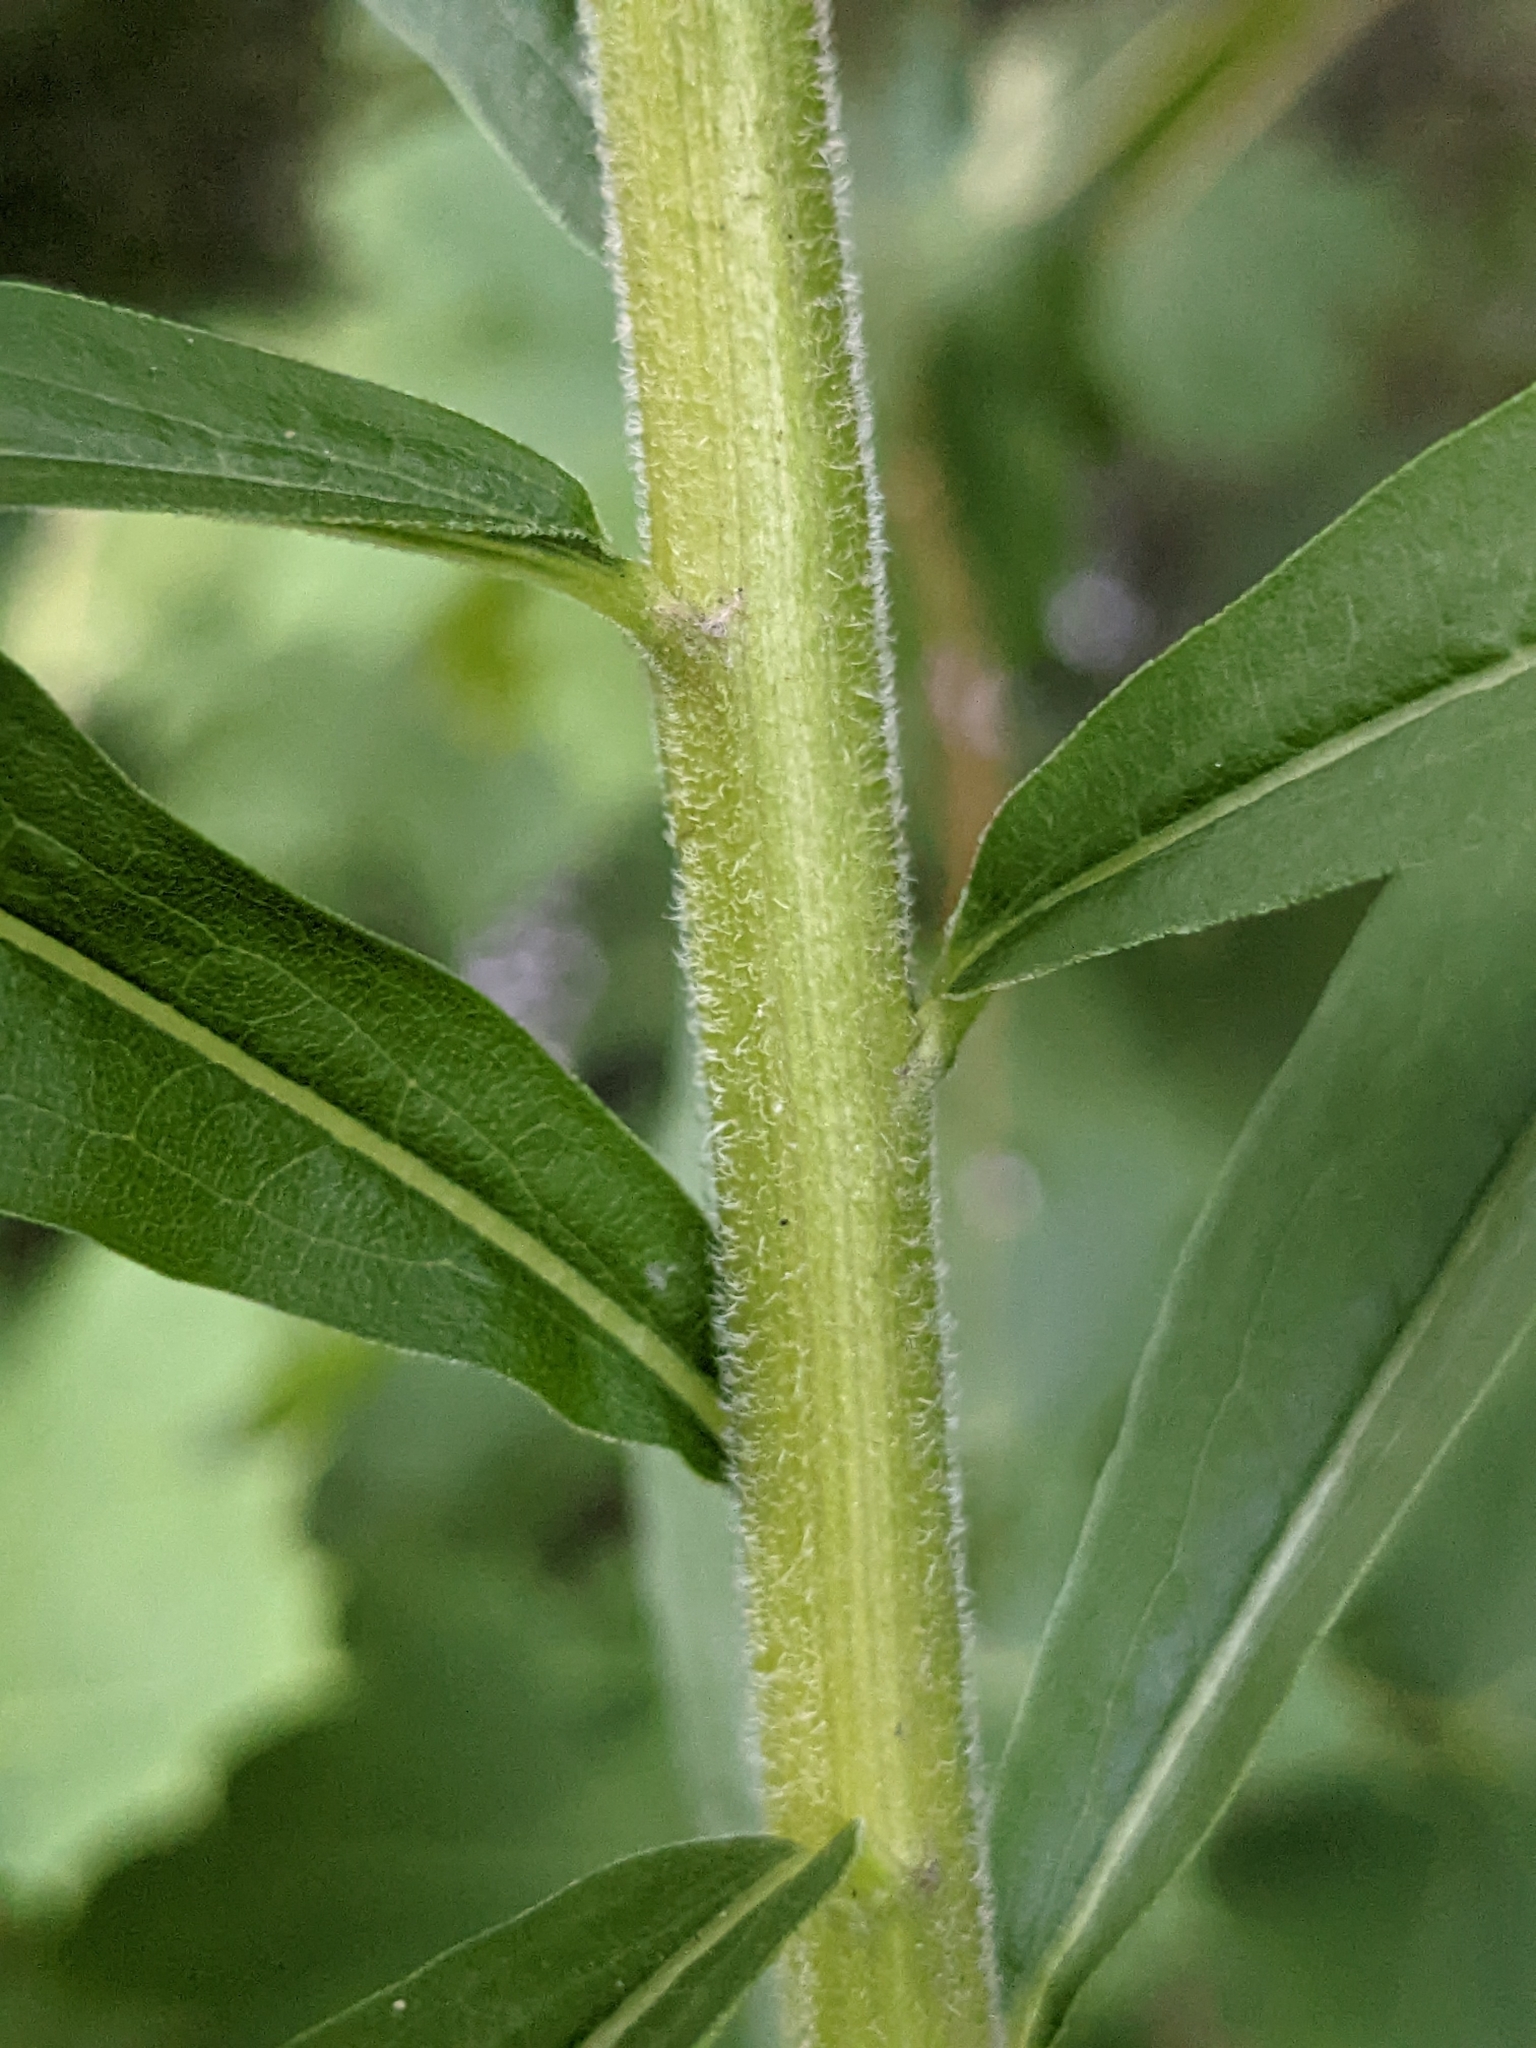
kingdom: Plantae
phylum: Tracheophyta
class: Magnoliopsida
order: Asterales
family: Asteraceae
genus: Solidago
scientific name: Solidago canadensis
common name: Canada goldenrod
